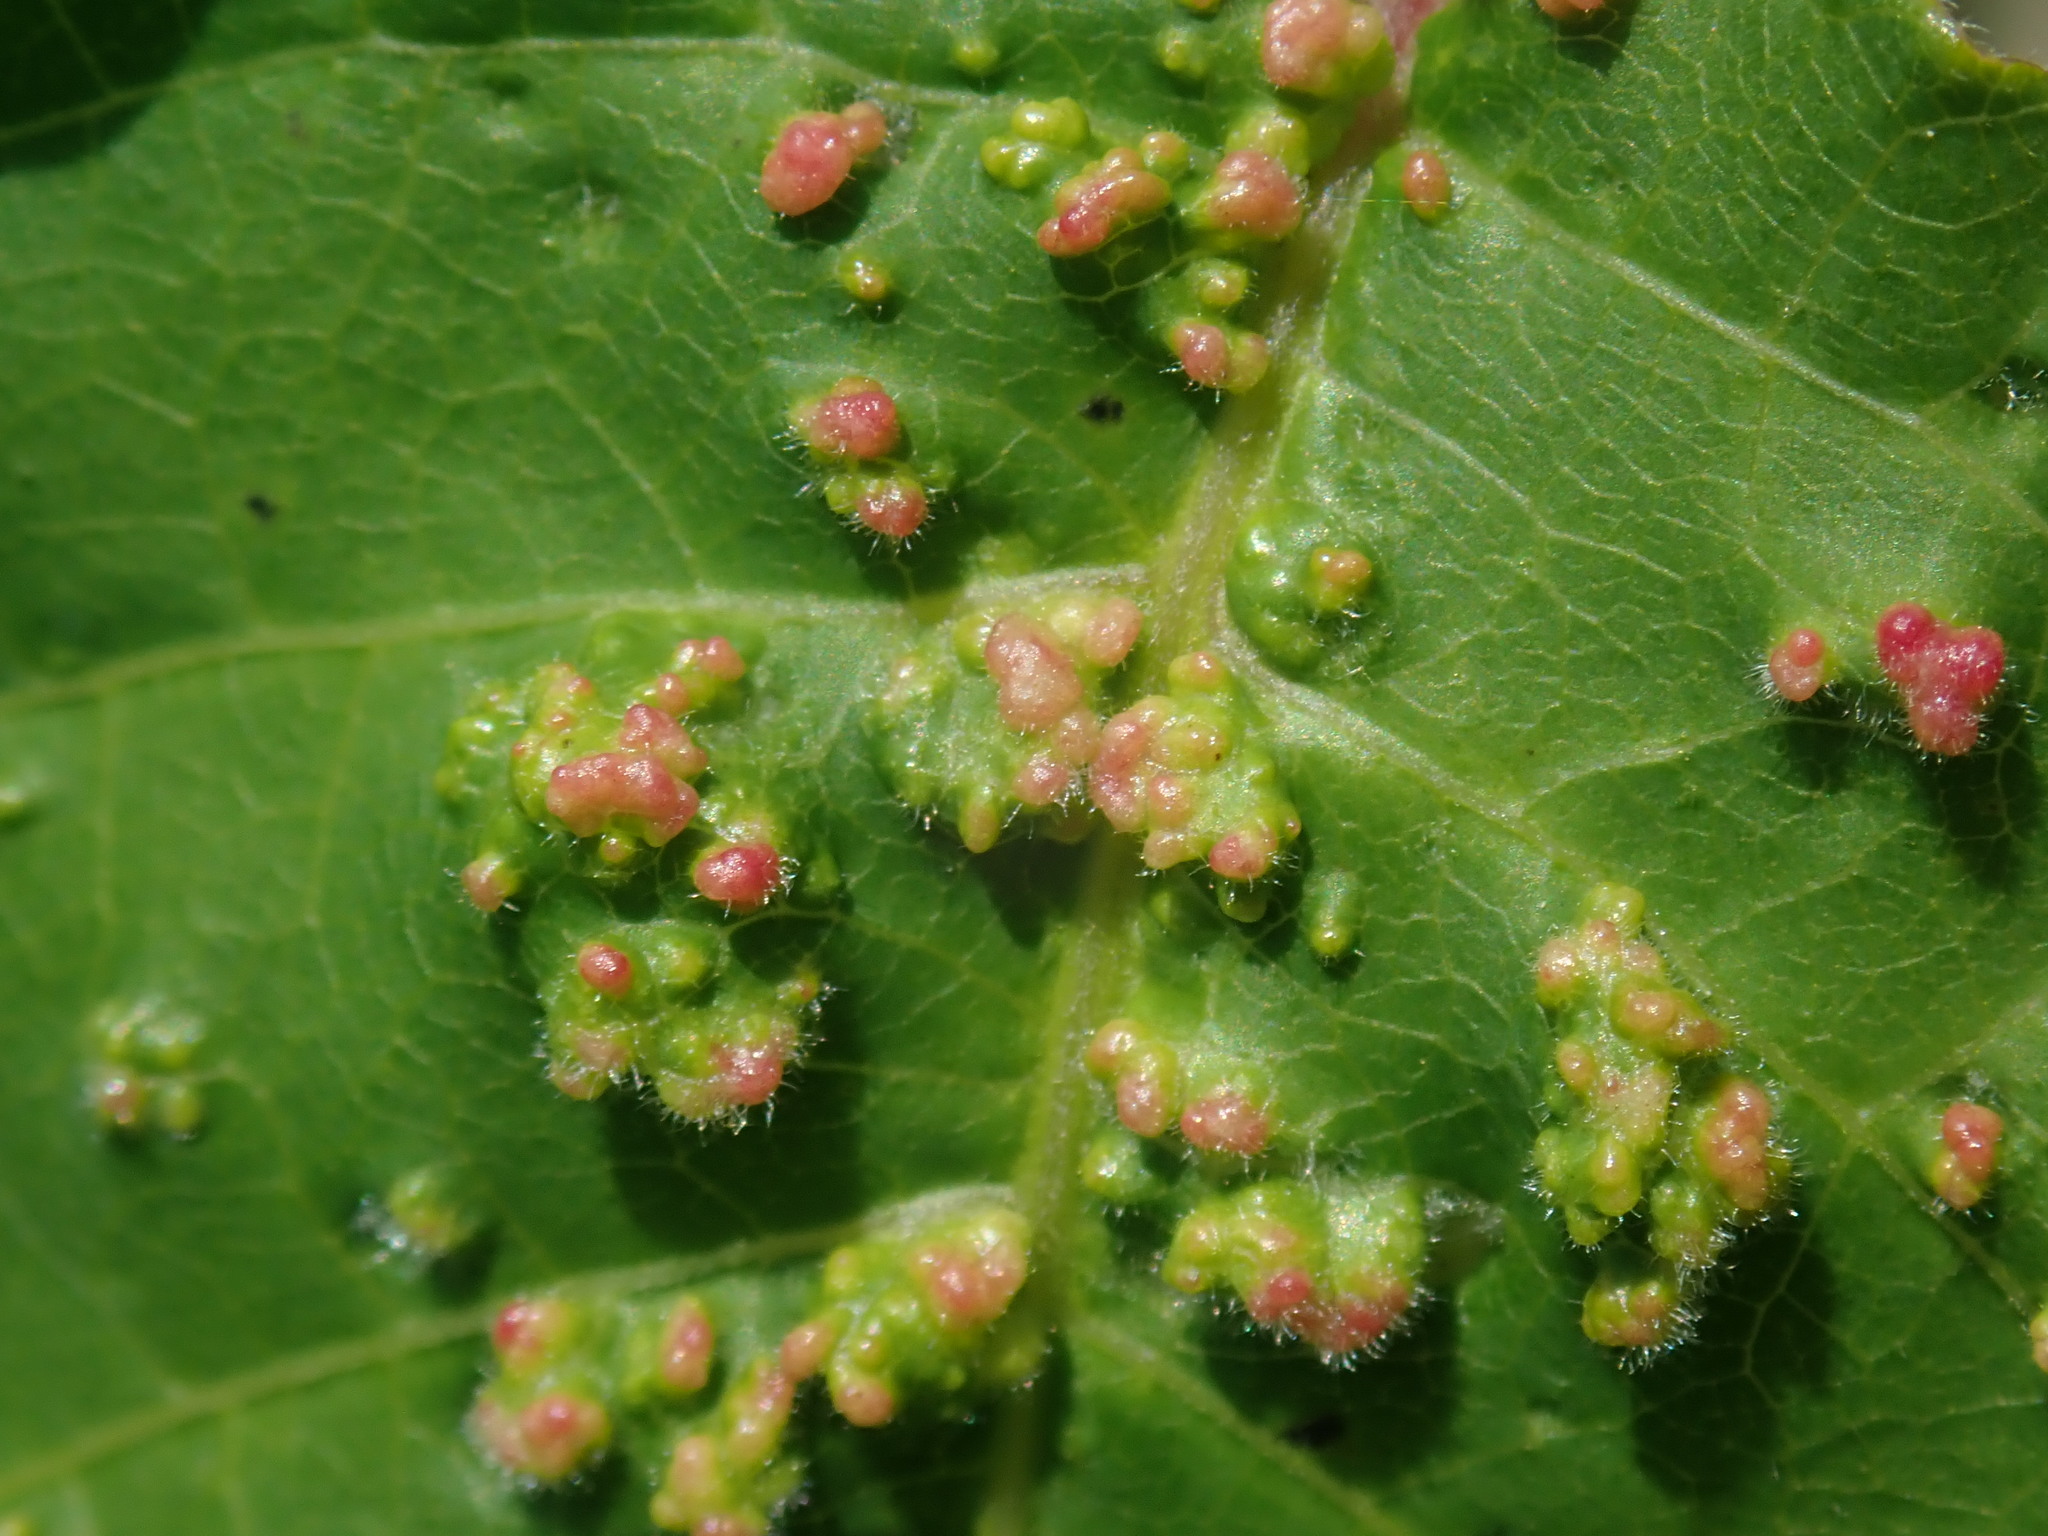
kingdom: Animalia
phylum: Arthropoda
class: Arachnida
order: Trombidiformes
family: Eriophyidae
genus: Aculops
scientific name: Aculops
